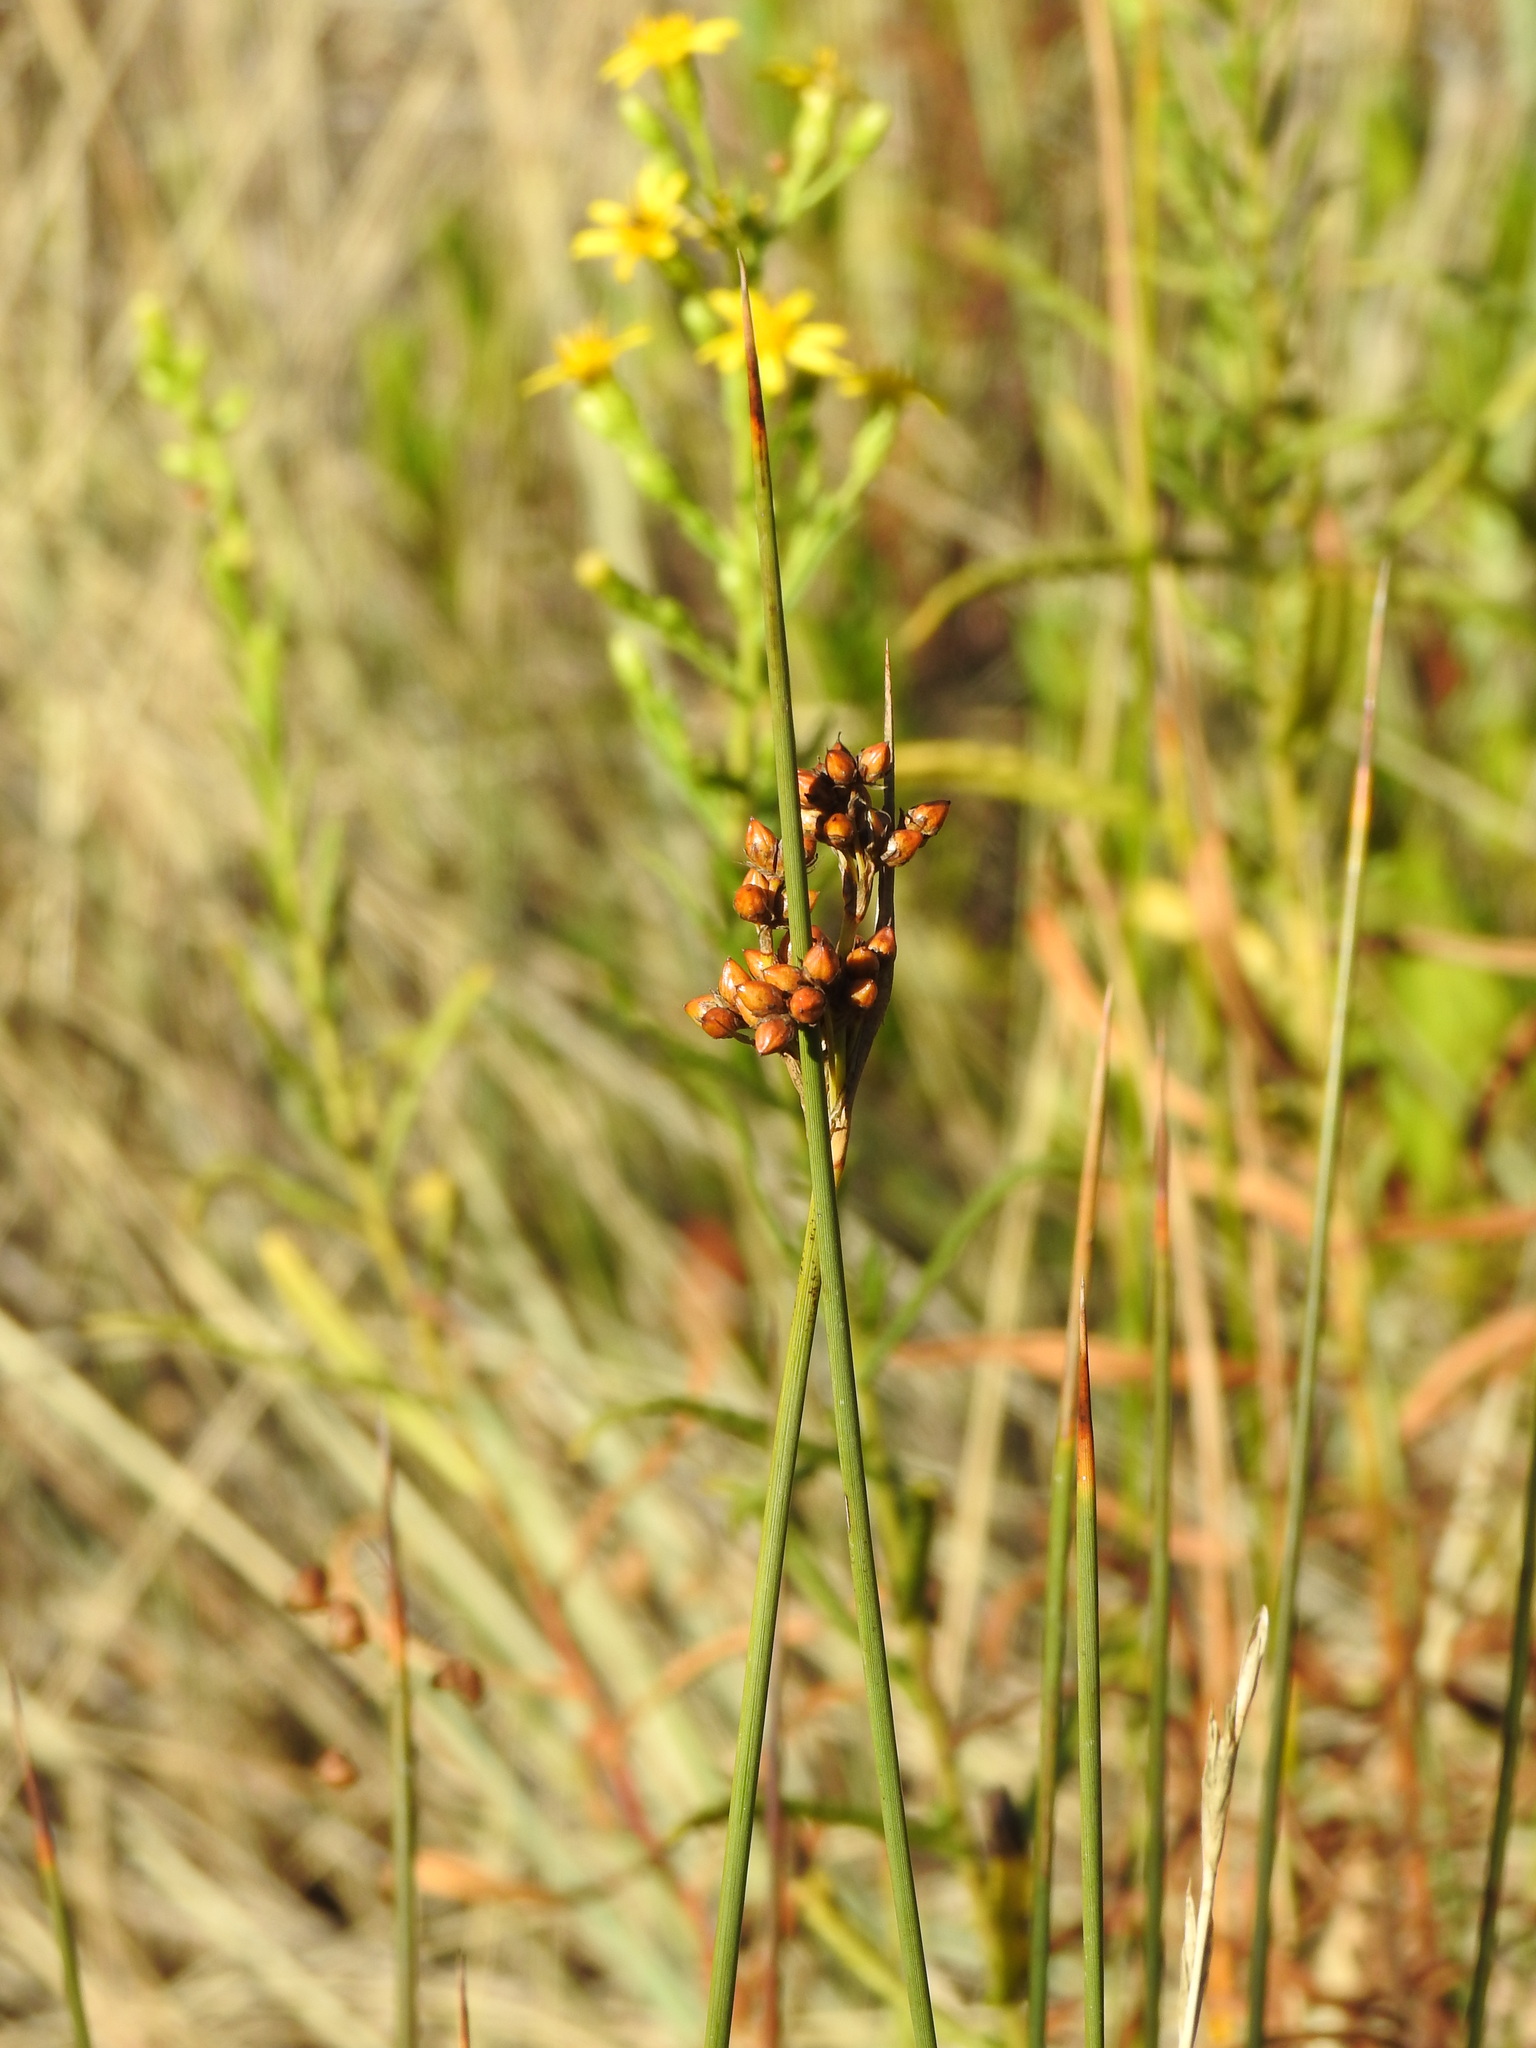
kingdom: Plantae
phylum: Tracheophyta
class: Liliopsida
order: Poales
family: Juncaceae
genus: Juncus
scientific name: Juncus acutus
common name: Sharp rush
